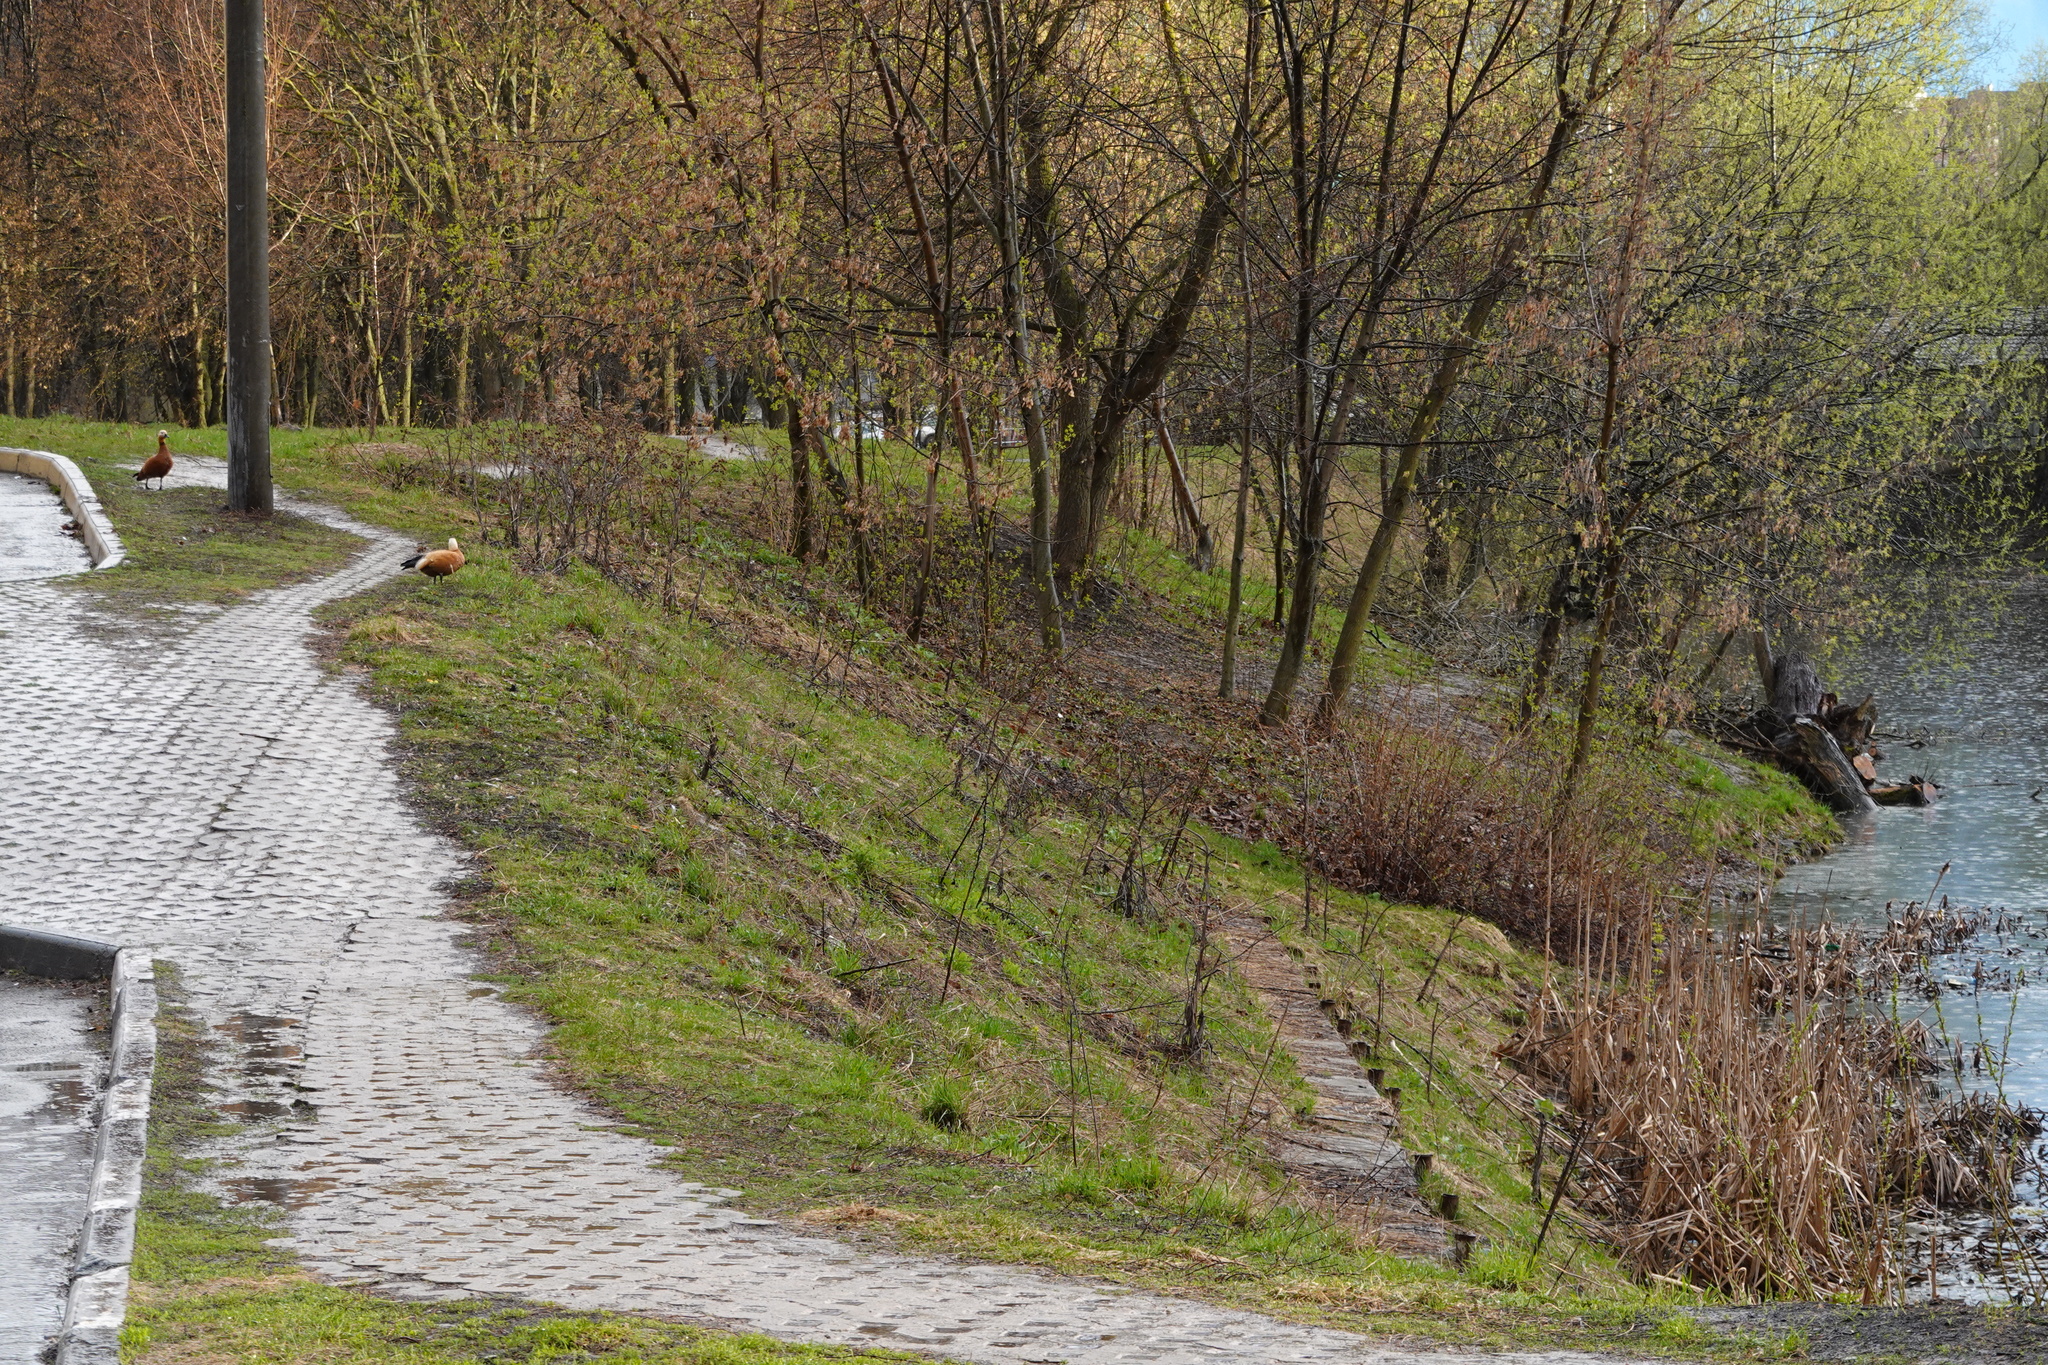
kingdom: Animalia
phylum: Chordata
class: Aves
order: Anseriformes
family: Anatidae
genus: Tadorna
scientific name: Tadorna ferruginea
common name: Ruddy shelduck
